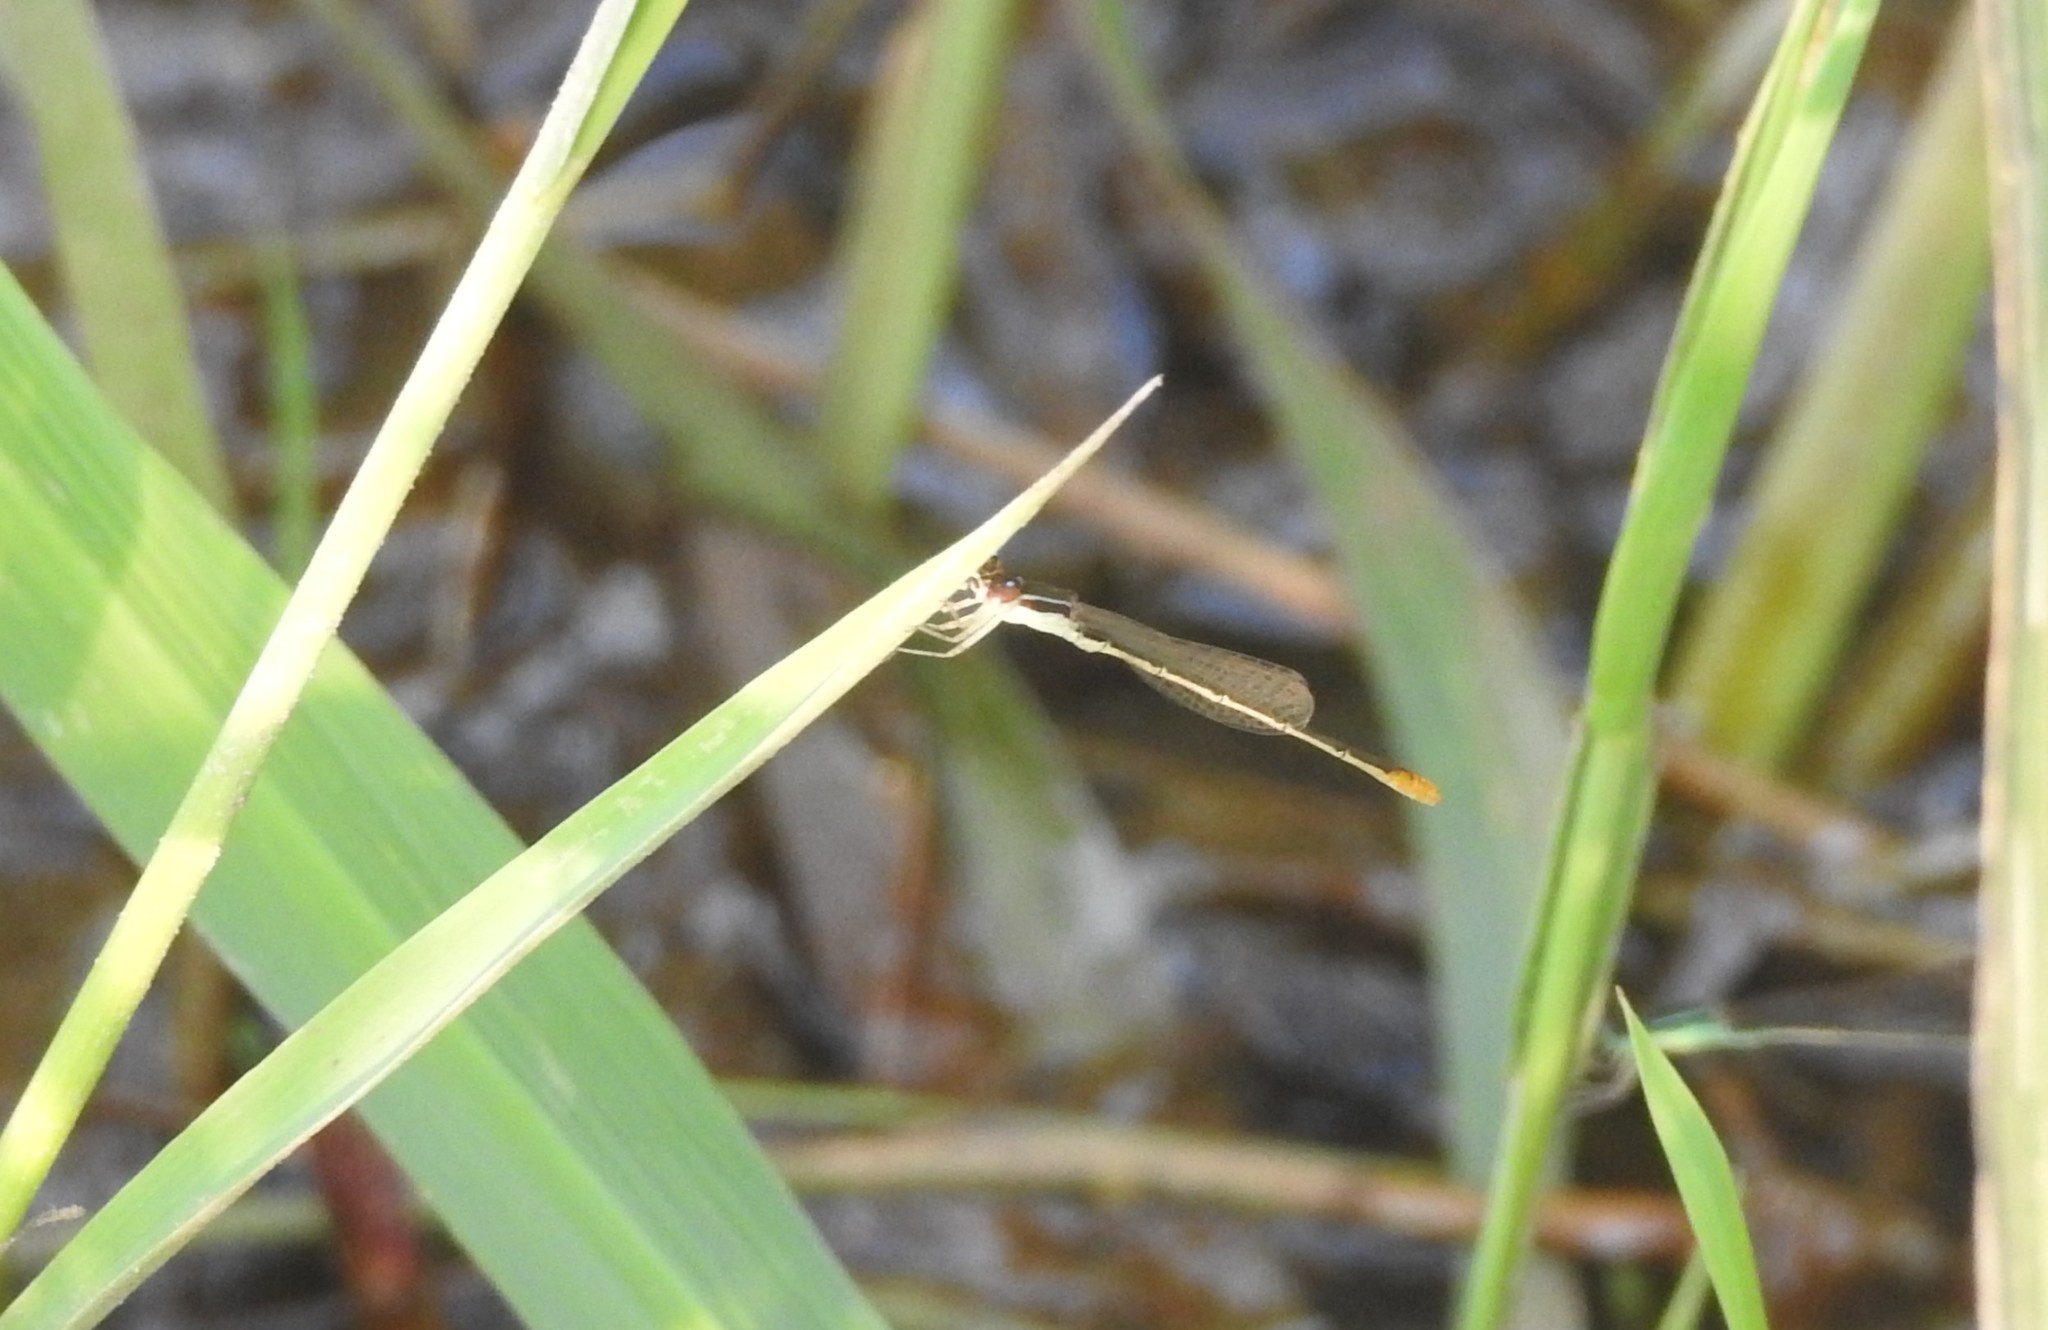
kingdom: Animalia
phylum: Arthropoda
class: Insecta
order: Odonata
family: Coenagrionidae
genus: Agriocnemis
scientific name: Agriocnemis pygmaea
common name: Pygmy wisp
